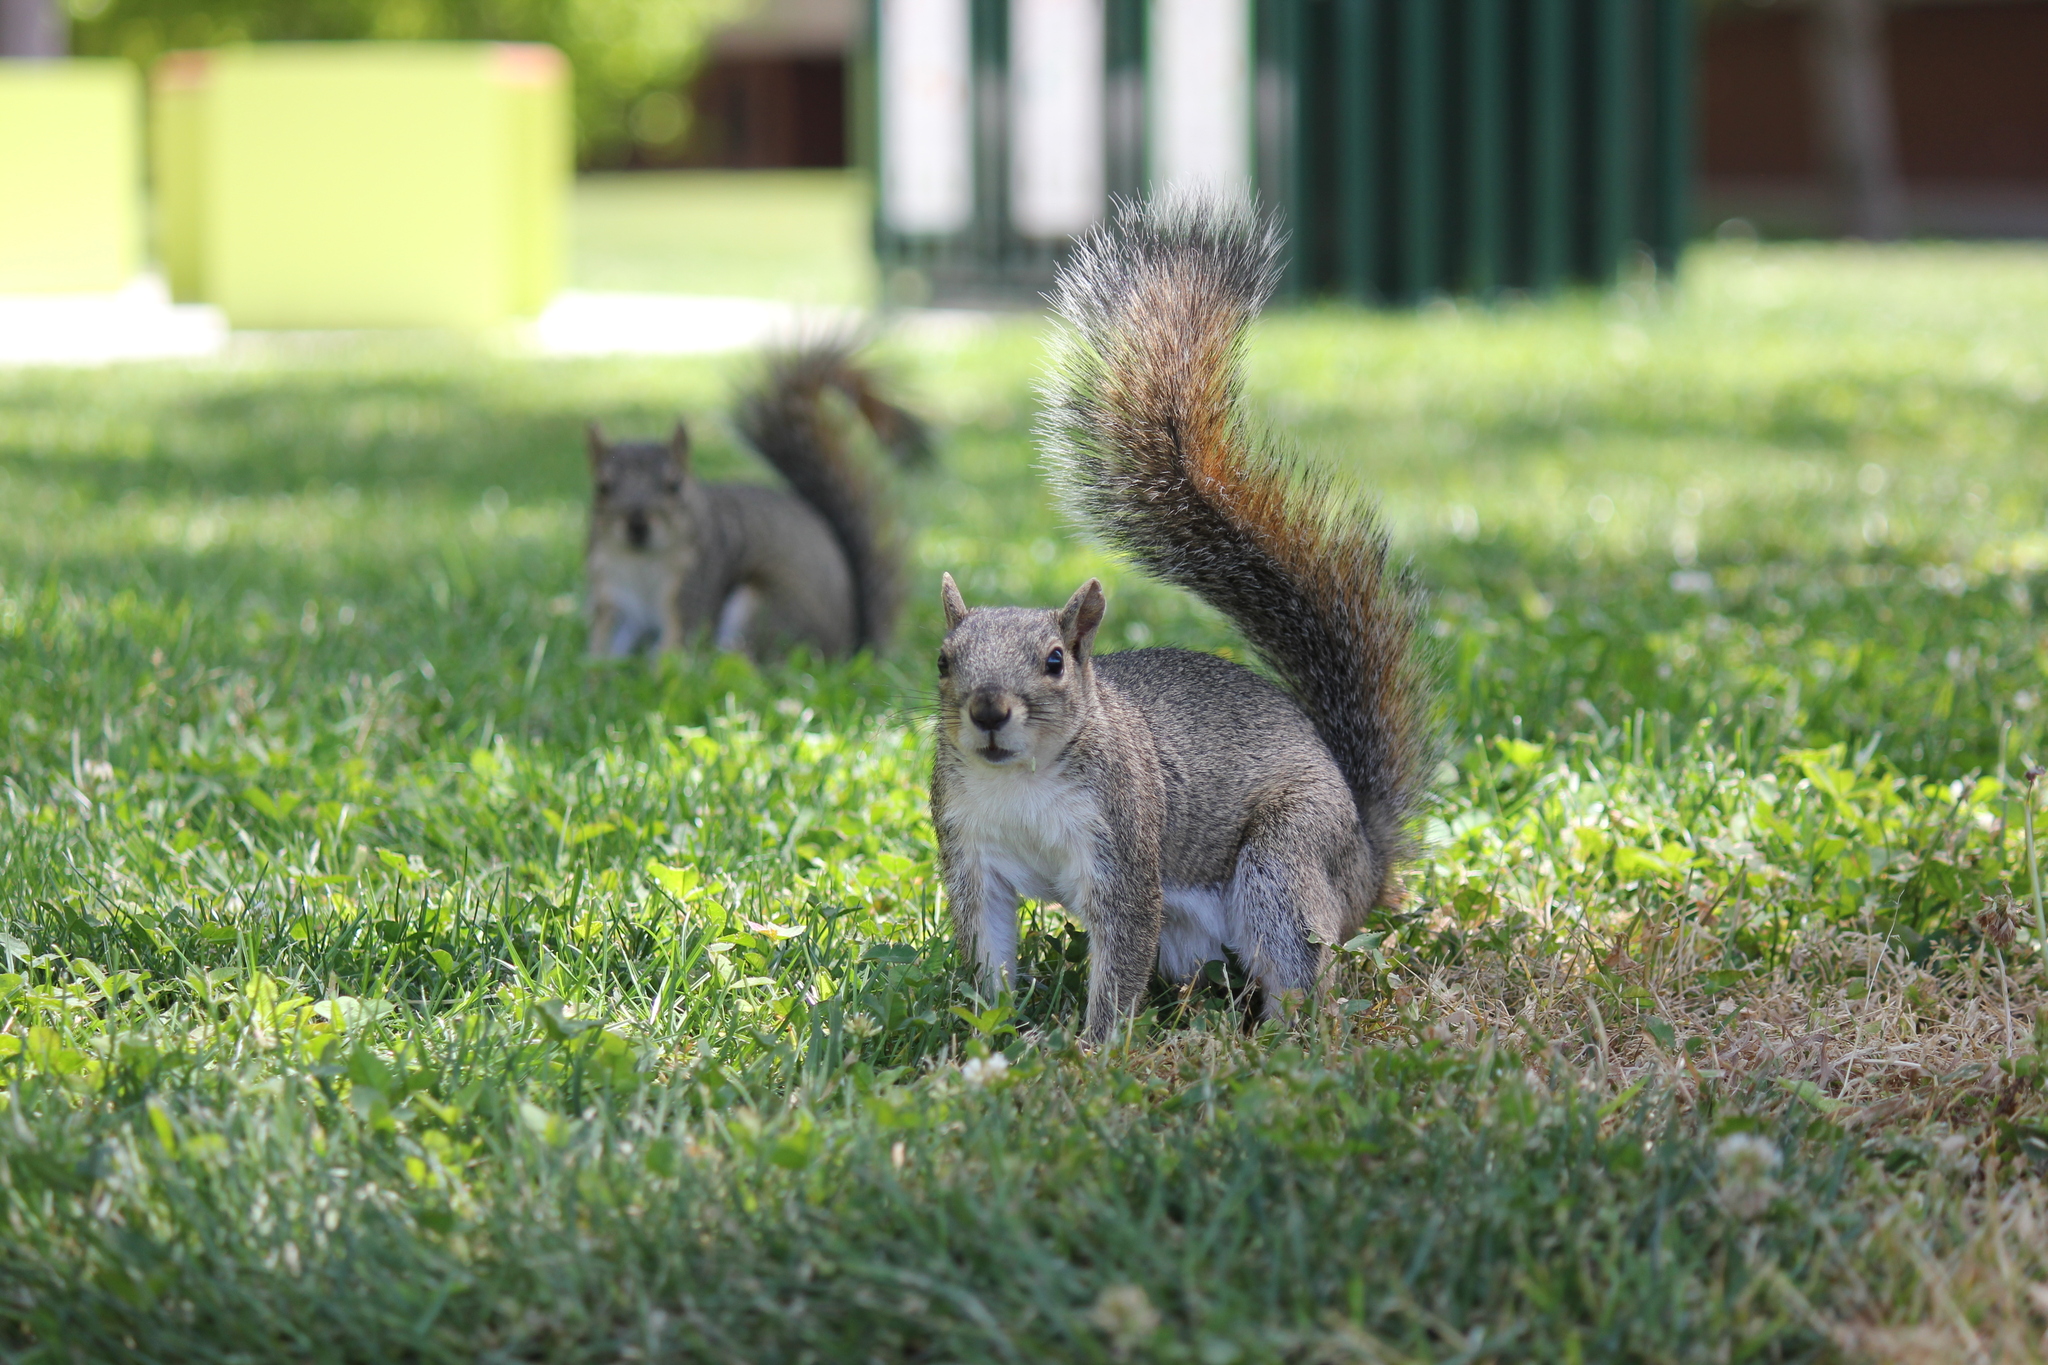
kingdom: Animalia
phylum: Chordata
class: Mammalia
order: Rodentia
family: Sciuridae
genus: Sciurus
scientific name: Sciurus niger
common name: Fox squirrel
